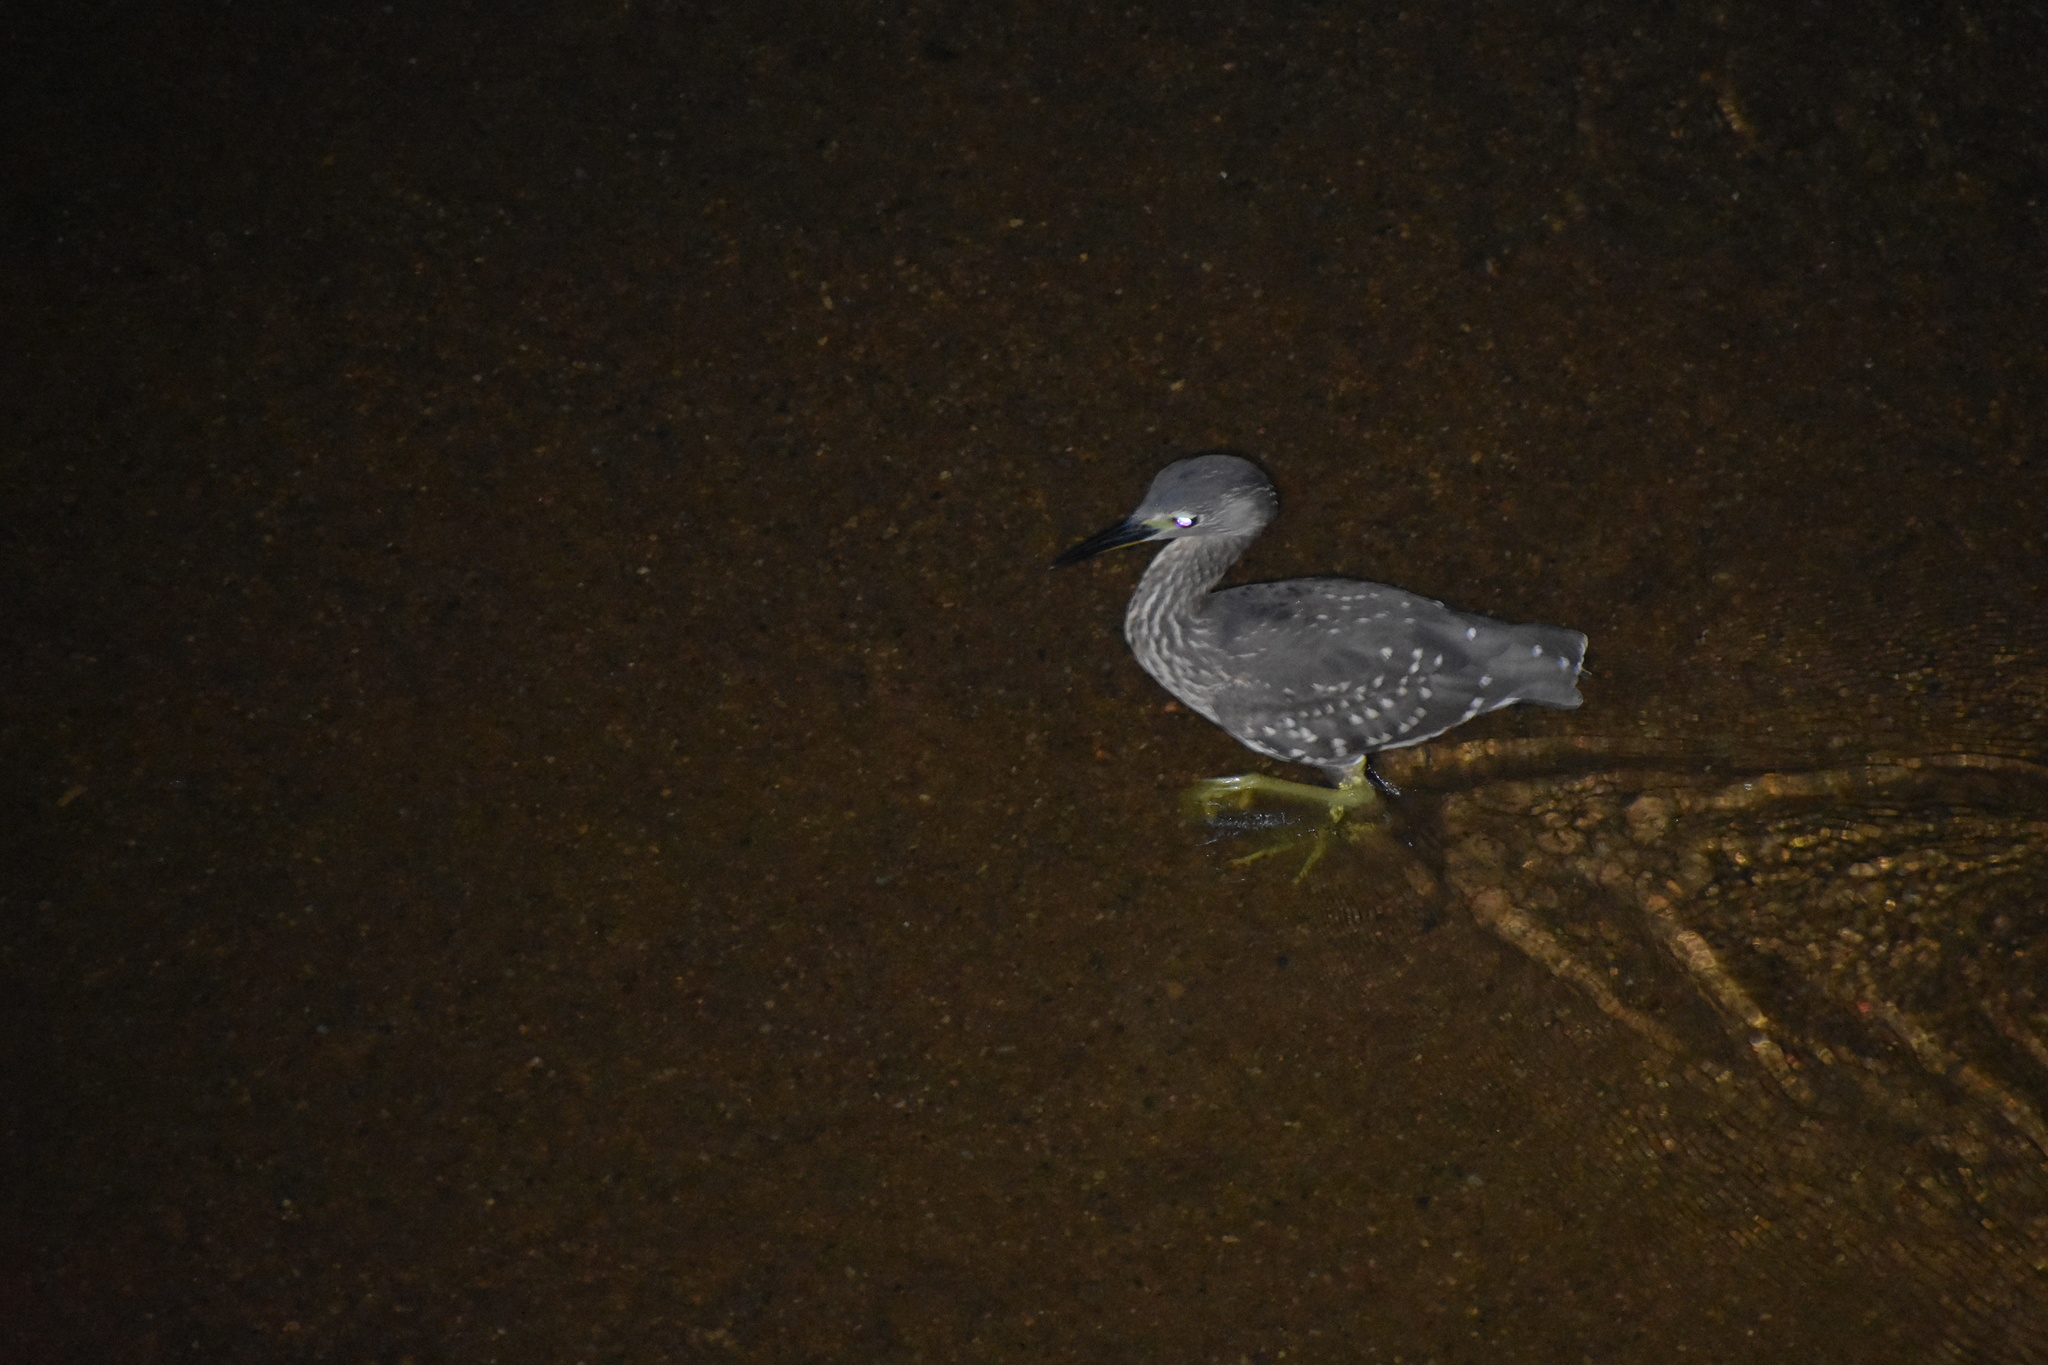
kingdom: Animalia
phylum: Chordata
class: Aves
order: Pelecaniformes
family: Ardeidae
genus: Gorsachius
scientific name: Gorsachius leuconotus
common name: White-backed night heron
